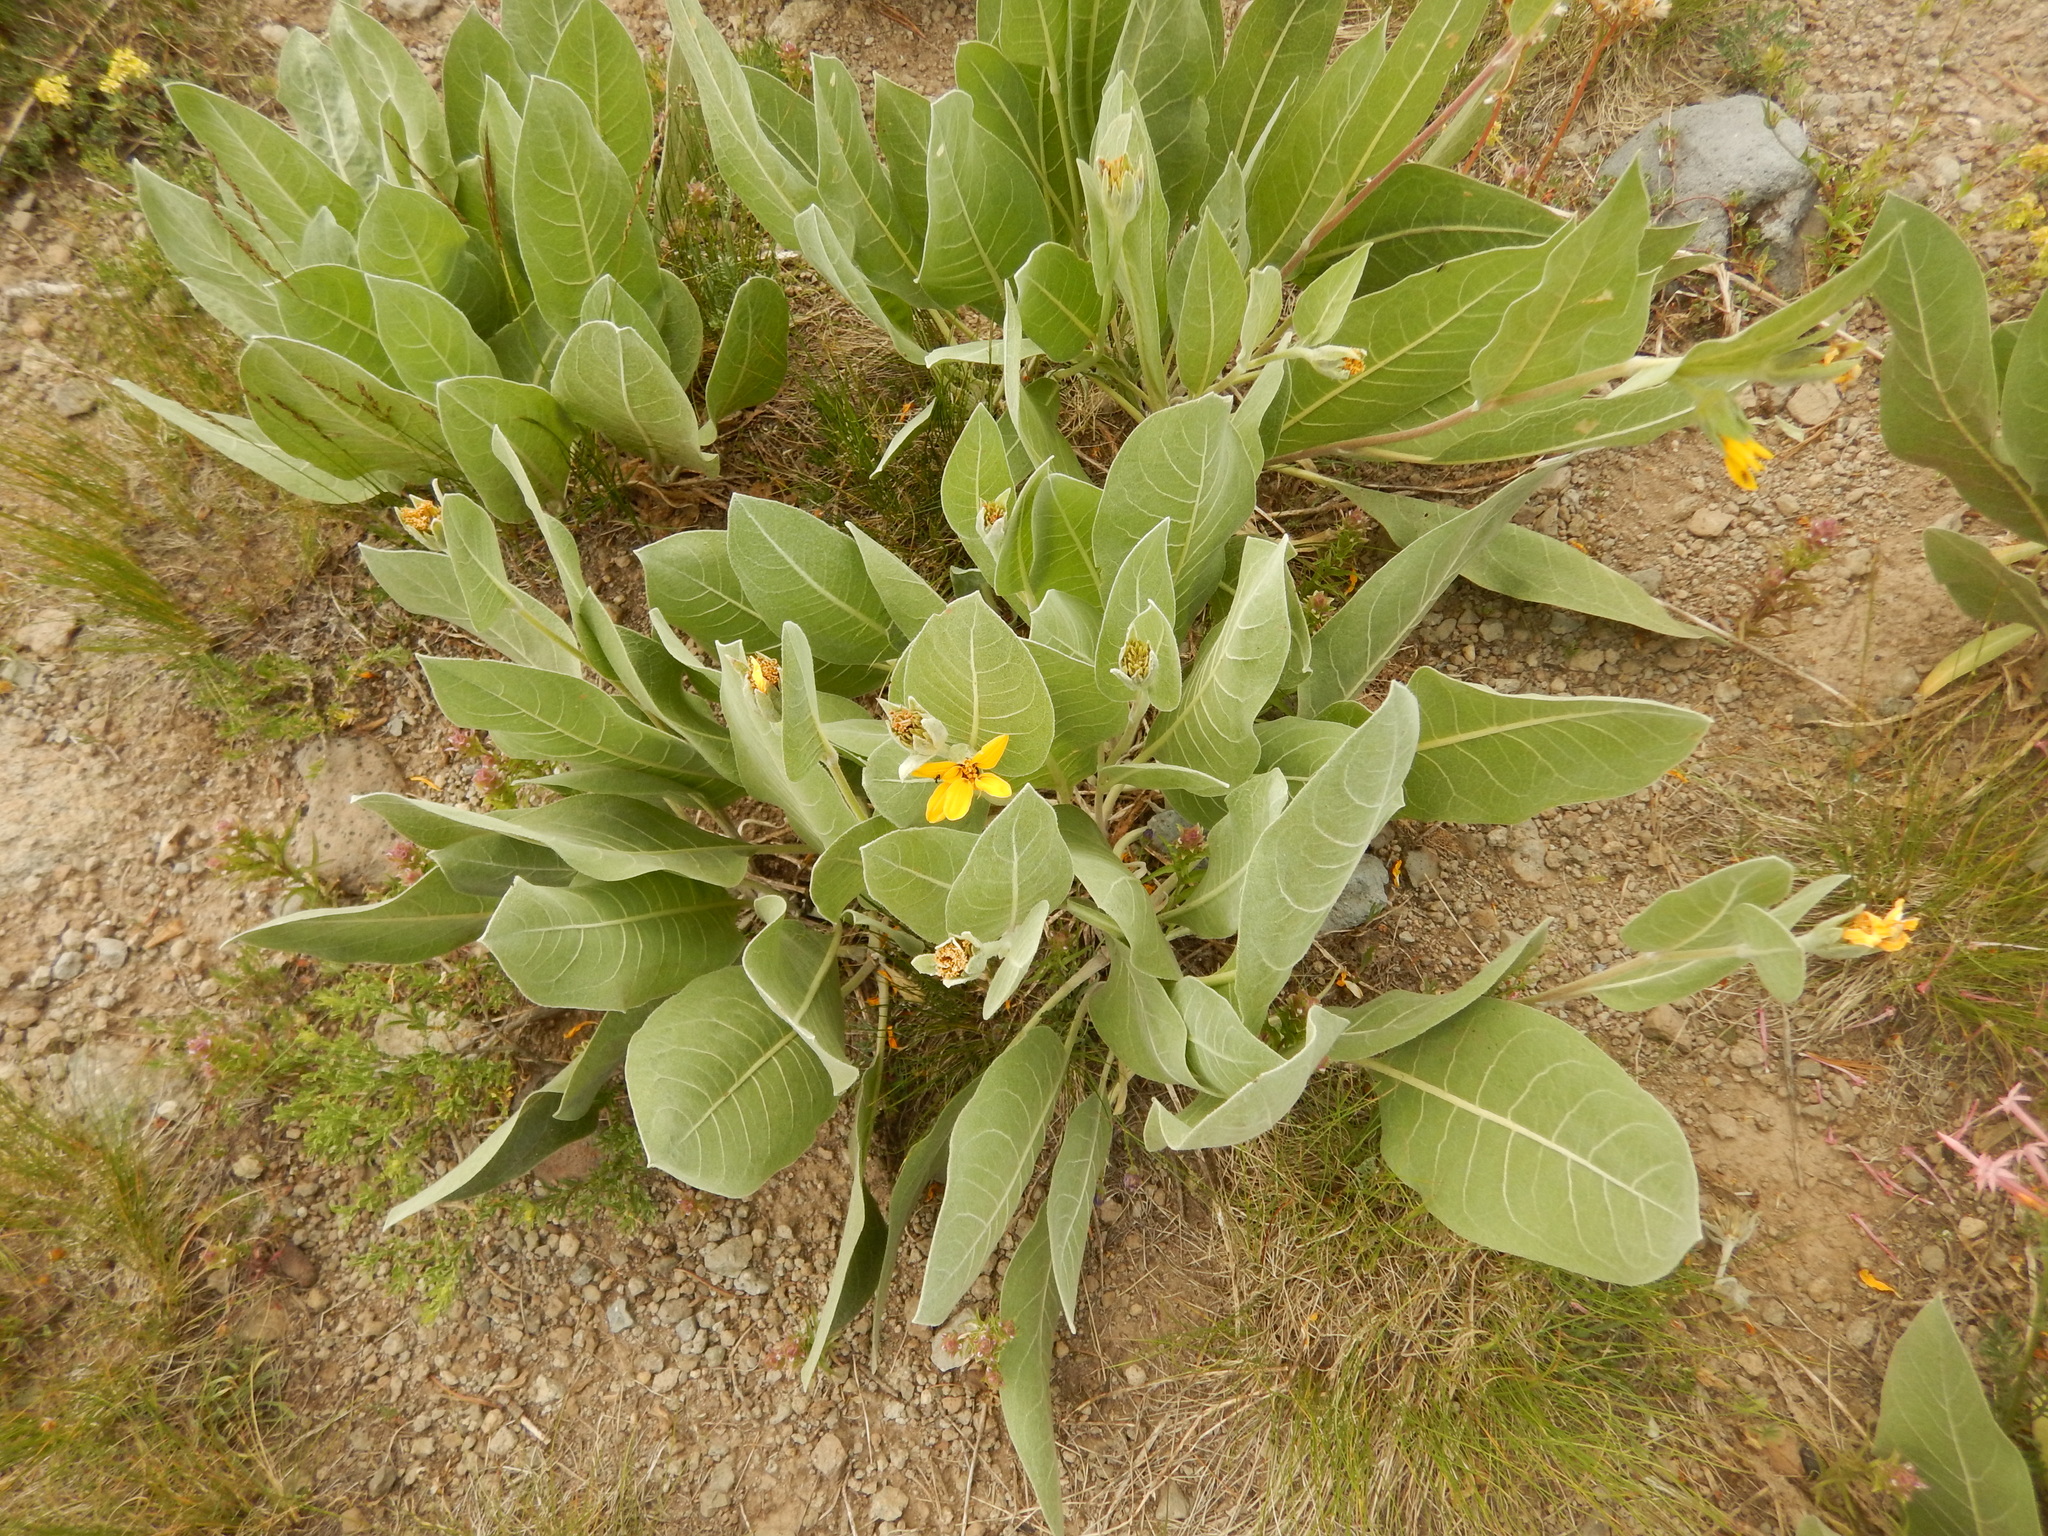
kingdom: Plantae
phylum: Tracheophyta
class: Magnoliopsida
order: Asterales
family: Asteraceae
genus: Wyethia
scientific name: Wyethia mollis
